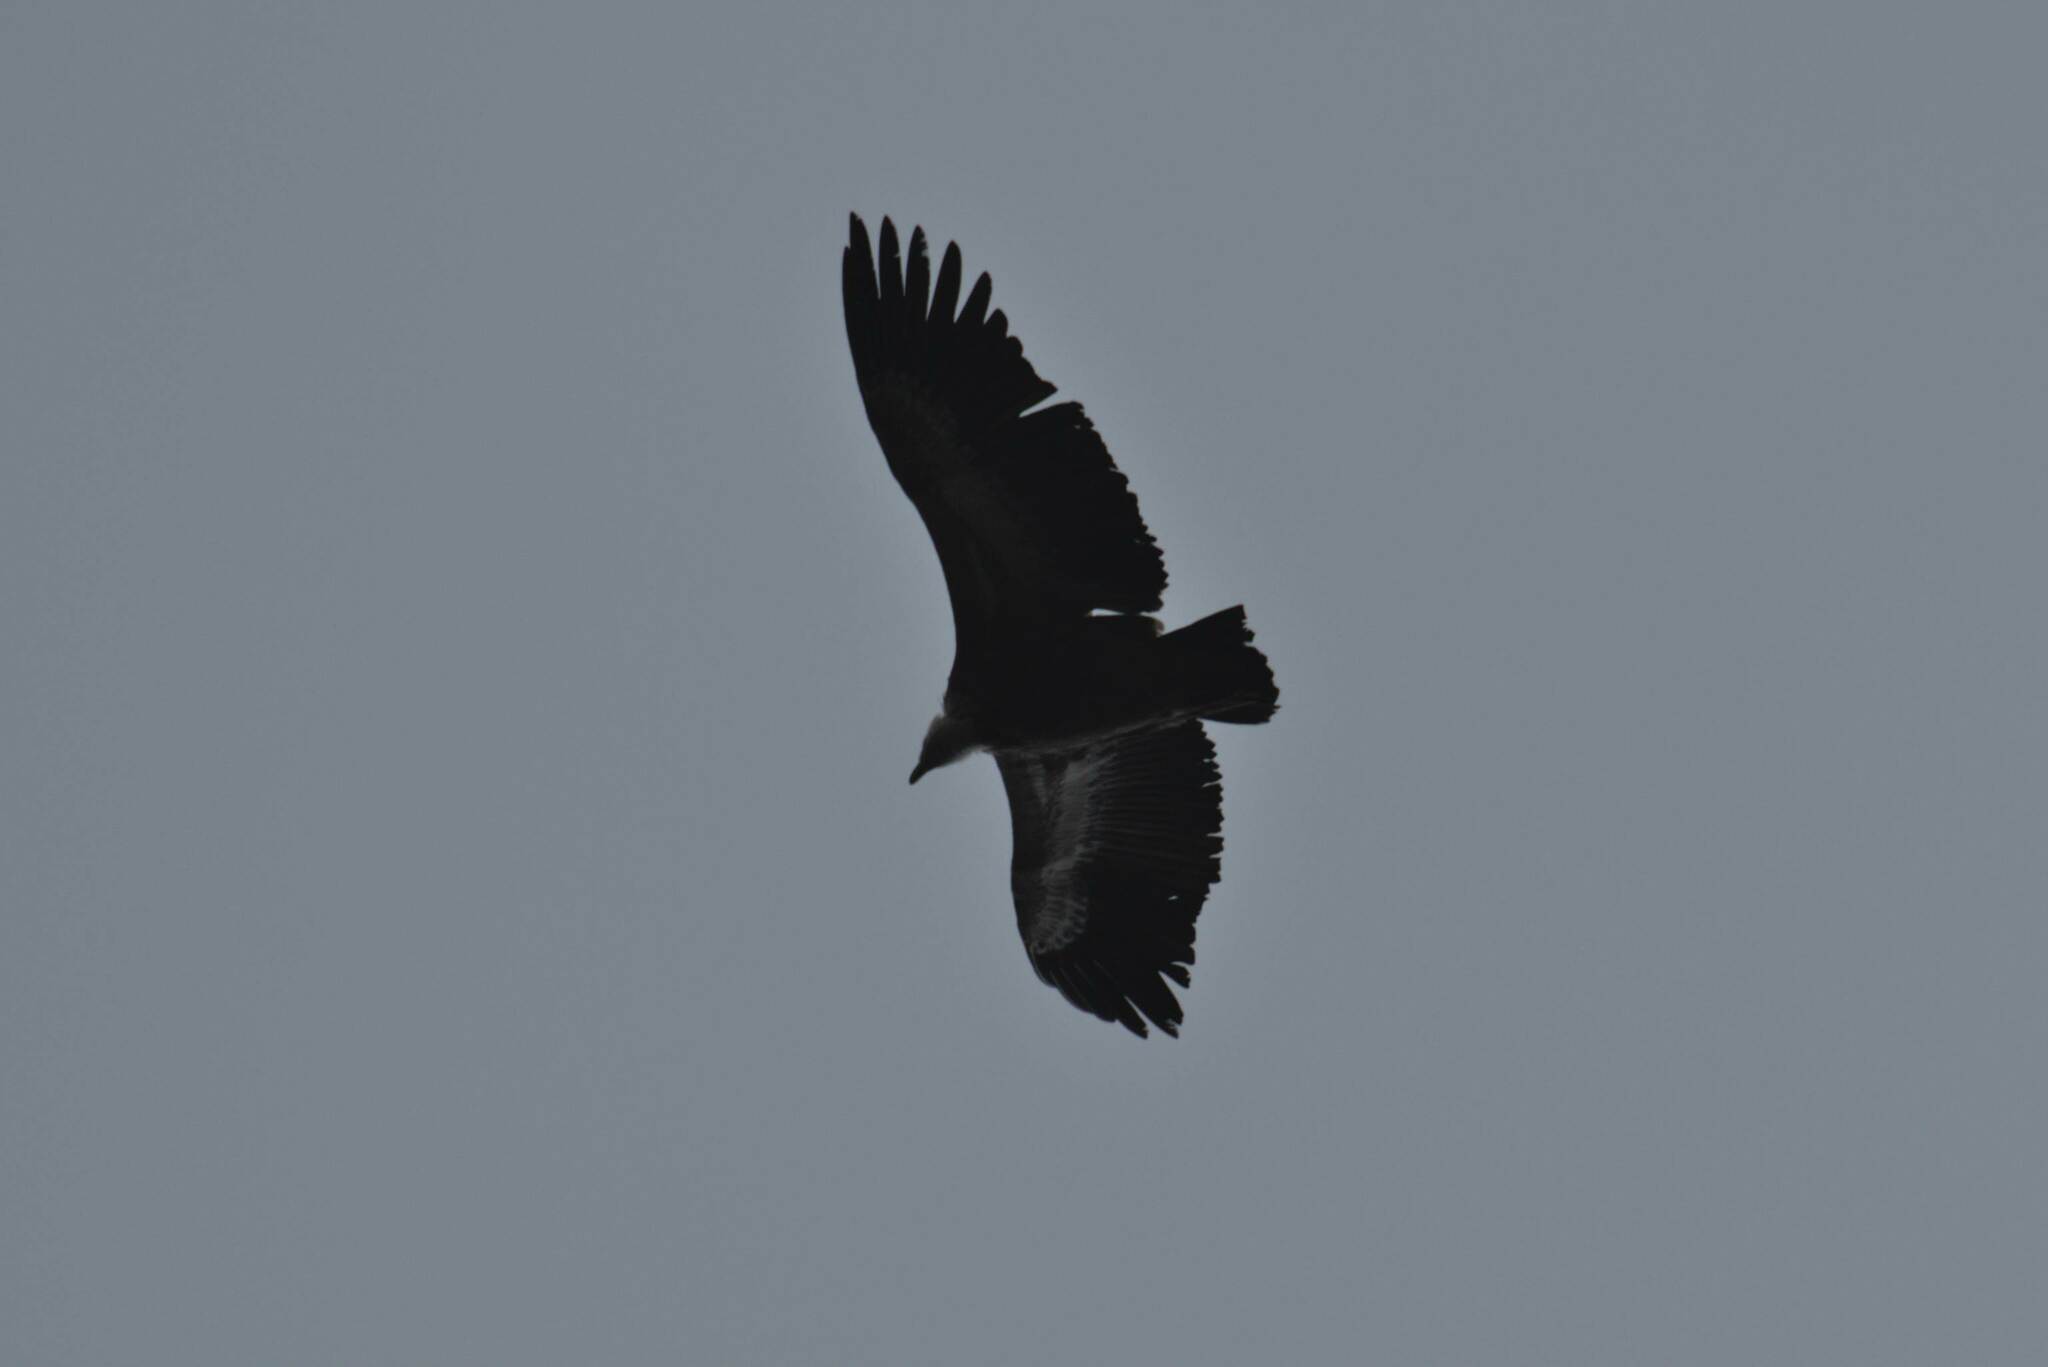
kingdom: Animalia
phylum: Chordata
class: Aves
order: Accipitriformes
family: Accipitridae
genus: Gyps
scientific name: Gyps fulvus
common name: Griffon vulture
